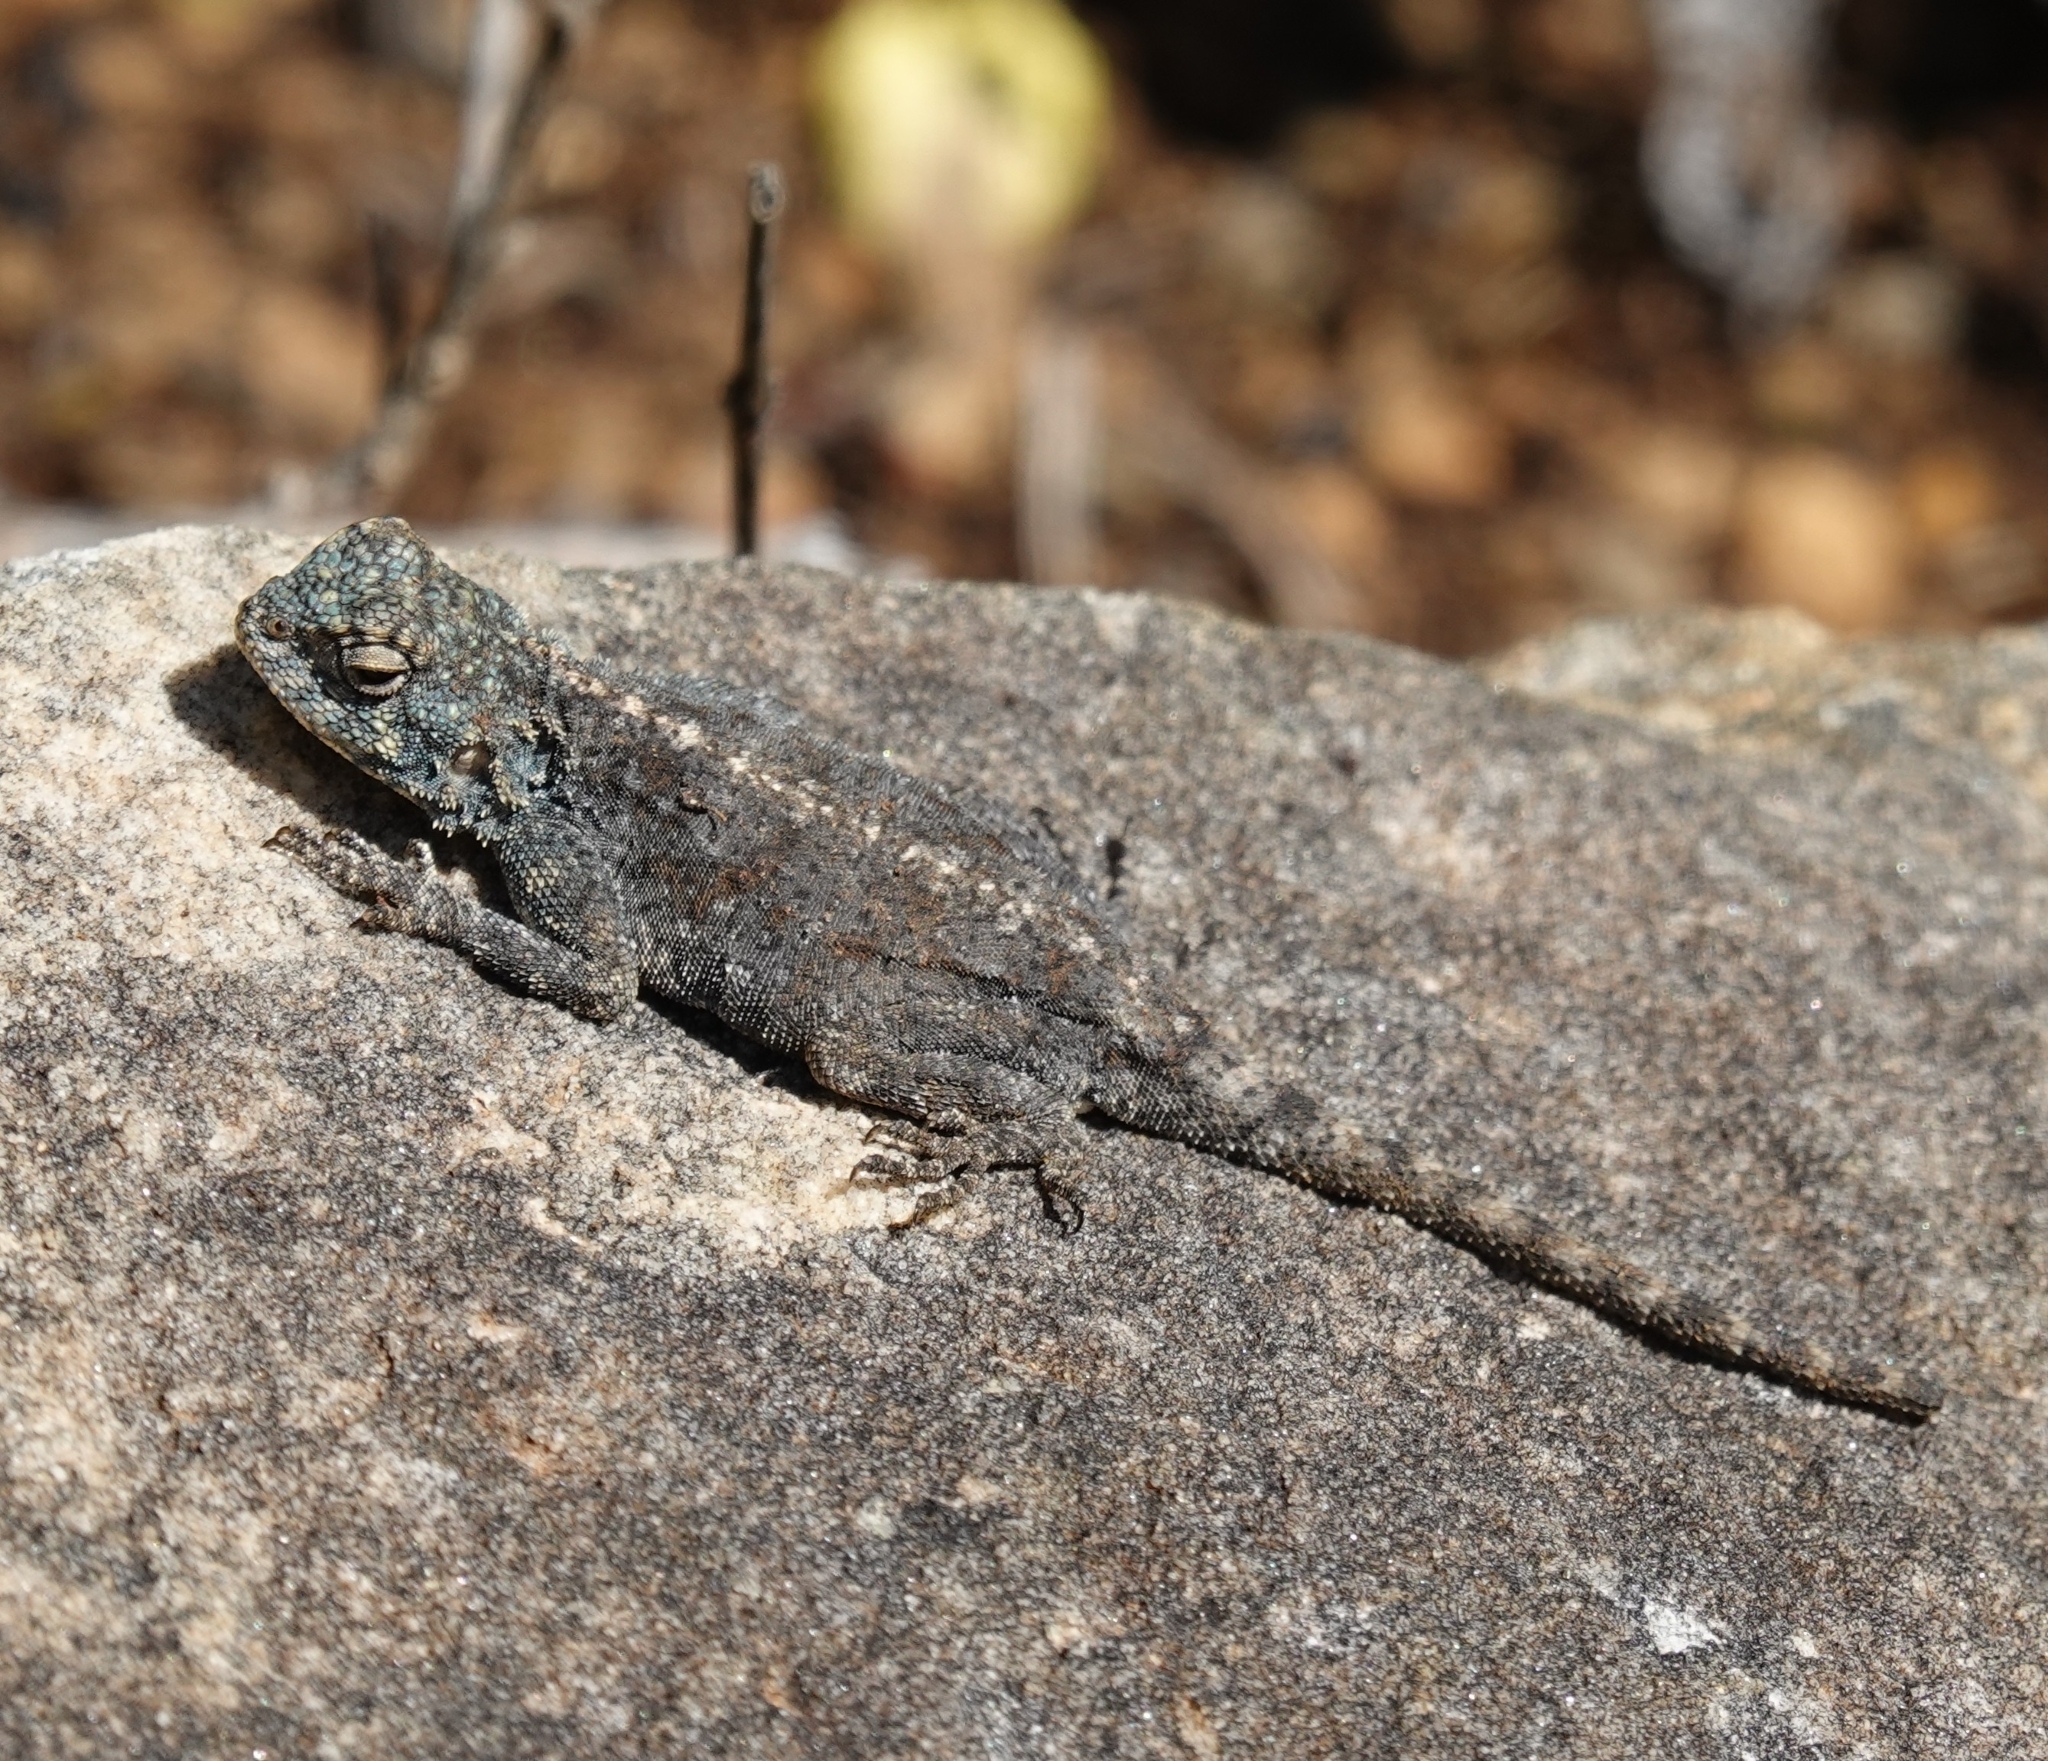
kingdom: Animalia
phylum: Chordata
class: Squamata
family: Agamidae
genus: Agama
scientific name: Agama atra
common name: Southern african rock agama
